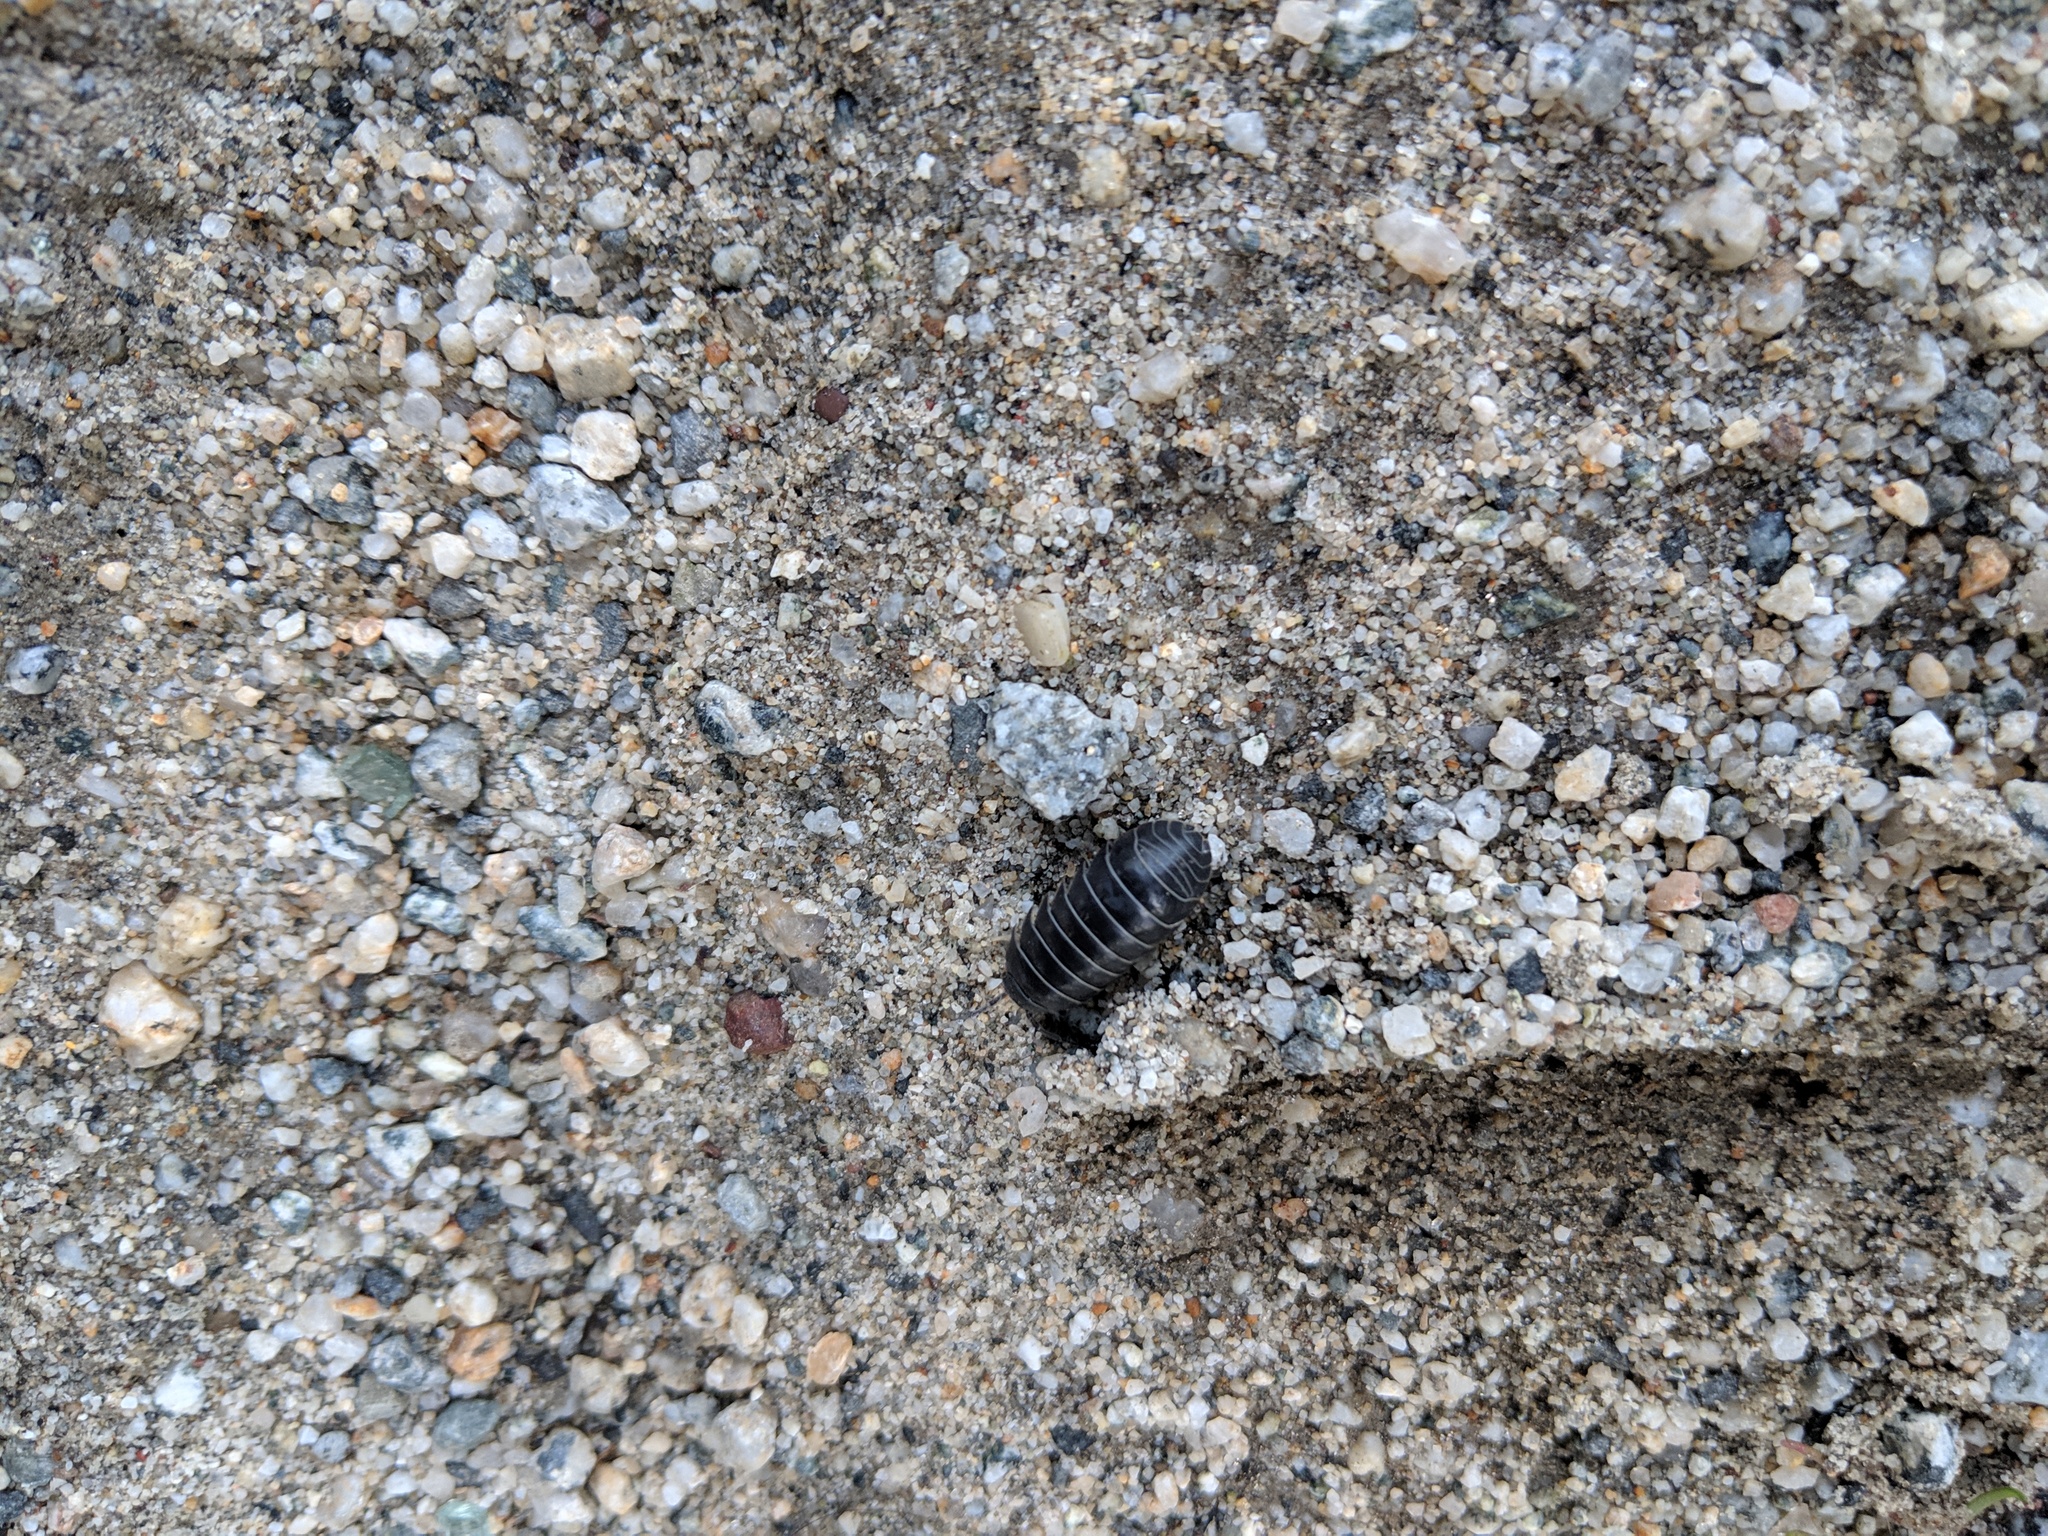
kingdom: Animalia
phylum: Arthropoda
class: Malacostraca
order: Isopoda
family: Armadillidiidae
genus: Armadillidium
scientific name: Armadillidium vulgare
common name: Common pill woodlouse
